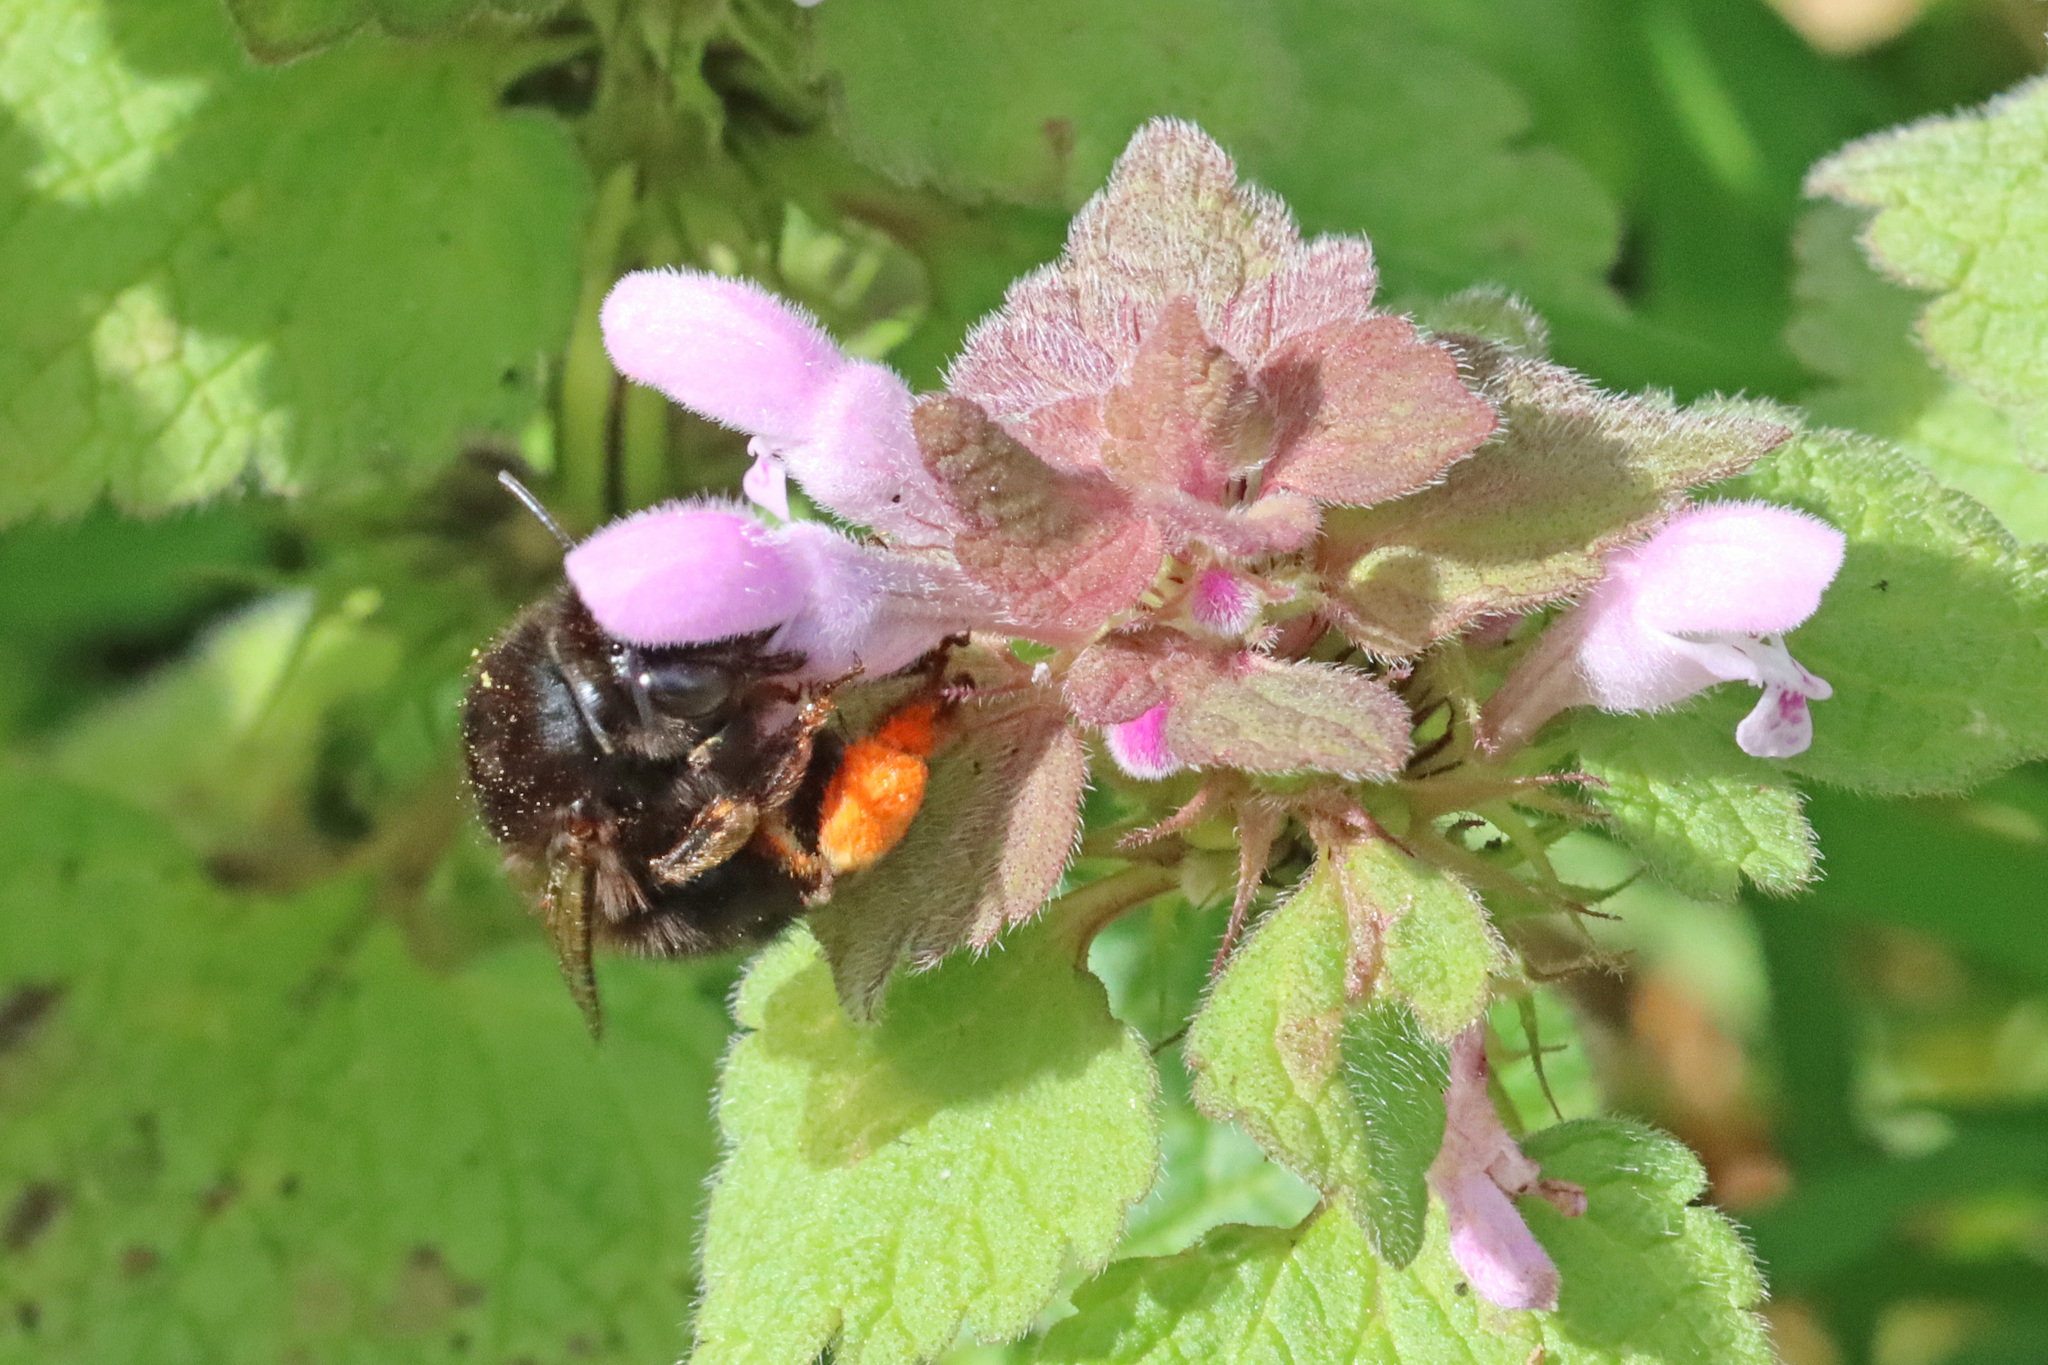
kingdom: Animalia
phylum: Arthropoda
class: Insecta
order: Hymenoptera
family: Apidae
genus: Anthophora
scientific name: Anthophora plumipes
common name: Hairy-footed flower bee
